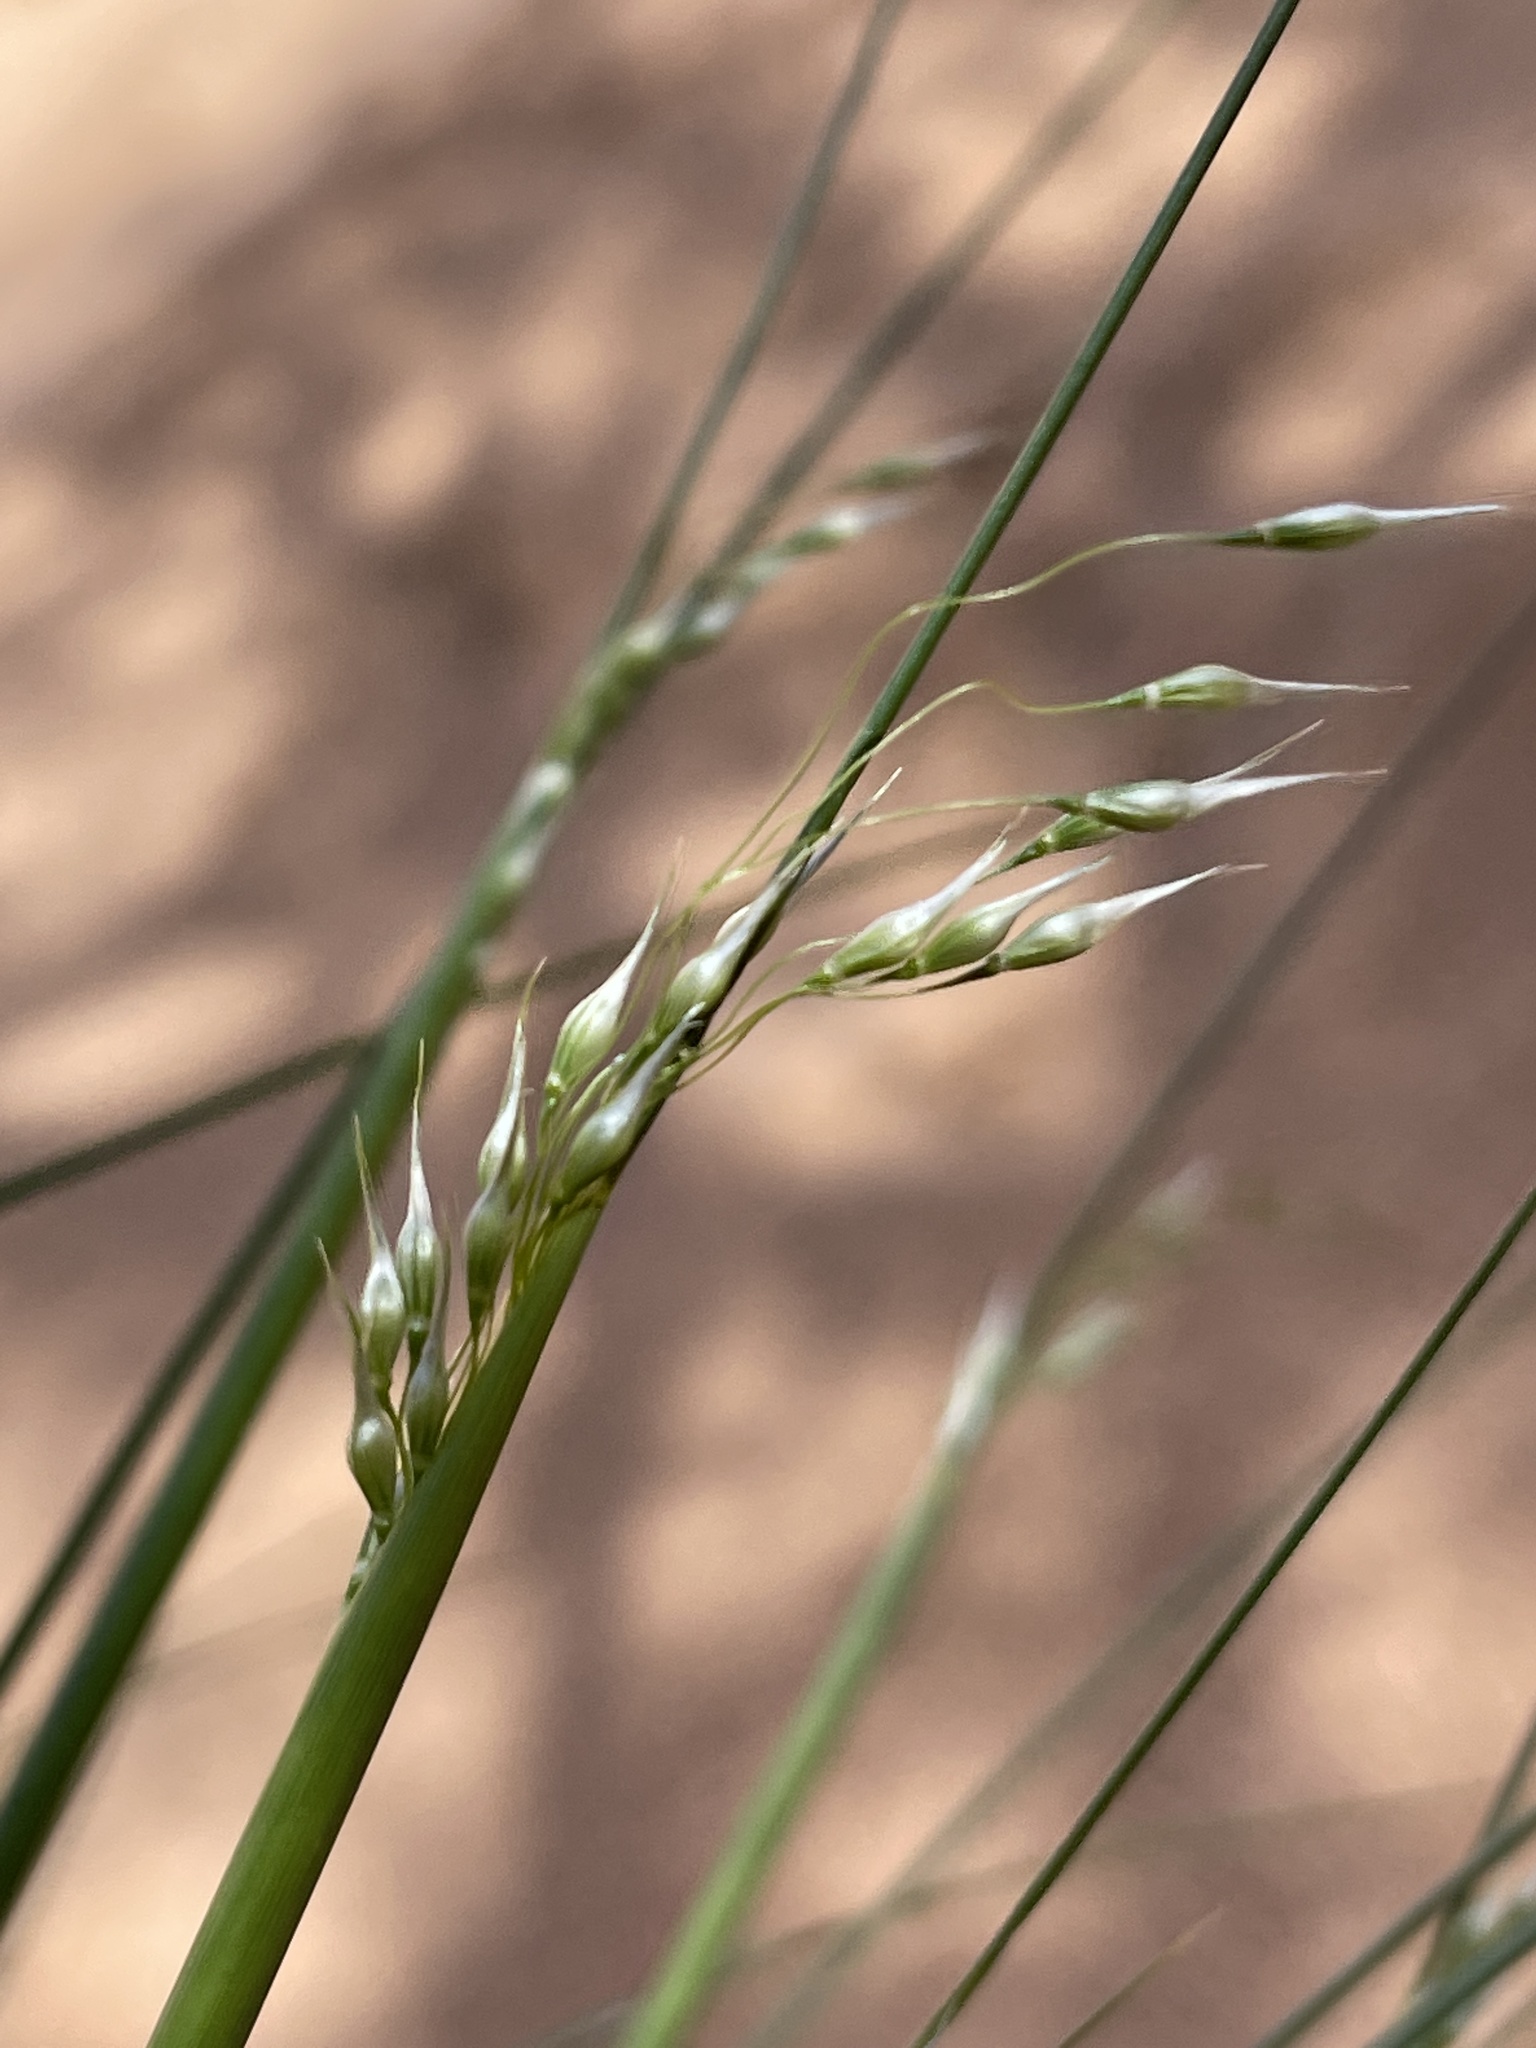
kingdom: Plantae
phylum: Tracheophyta
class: Liliopsida
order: Poales
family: Poaceae
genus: Eriocoma
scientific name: Eriocoma hymenoides
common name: Indian mountain ricegrass
